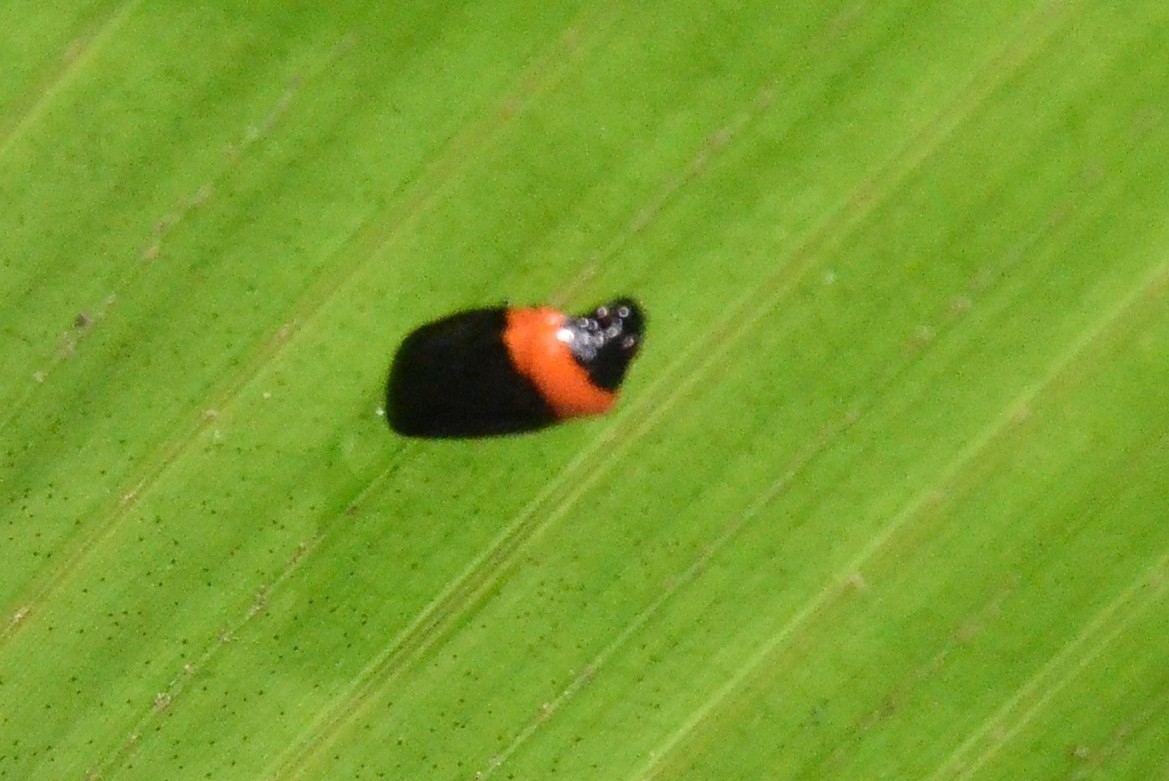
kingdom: Animalia
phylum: Arthropoda
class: Insecta
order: Hemiptera
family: Cercopidae
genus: Phymatostetha
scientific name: Phymatostetha deschampsi
